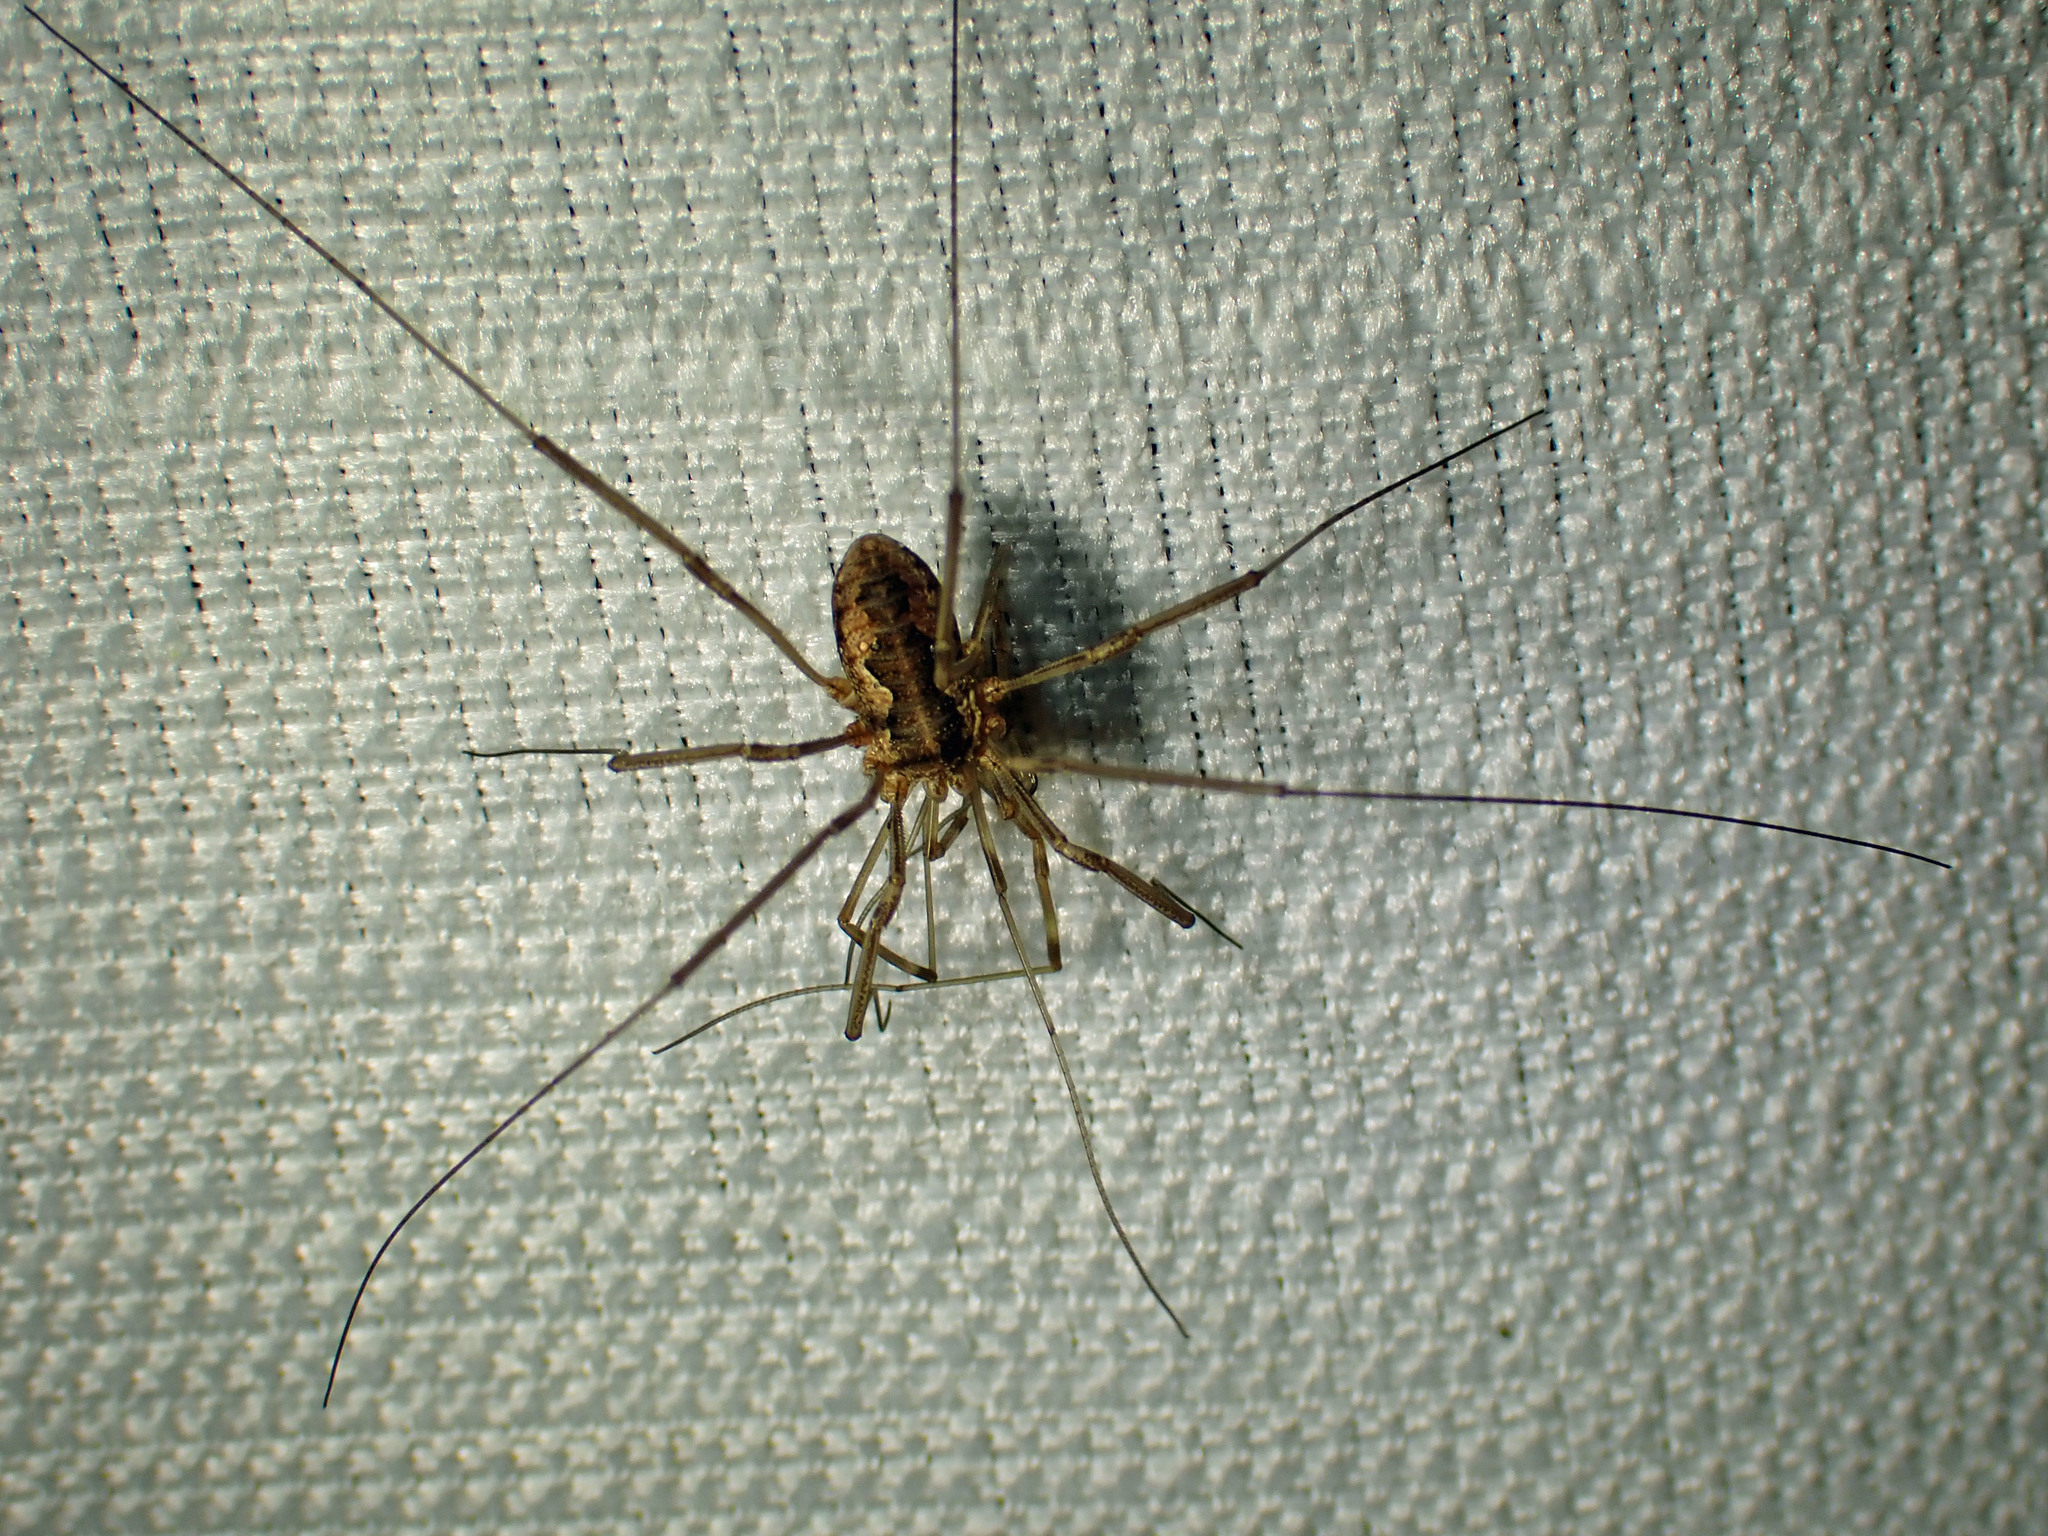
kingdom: Animalia
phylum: Arthropoda
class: Arachnida
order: Opiliones
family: Phalangiidae
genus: Phalangium
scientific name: Phalangium opilio
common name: Daddy longleg
